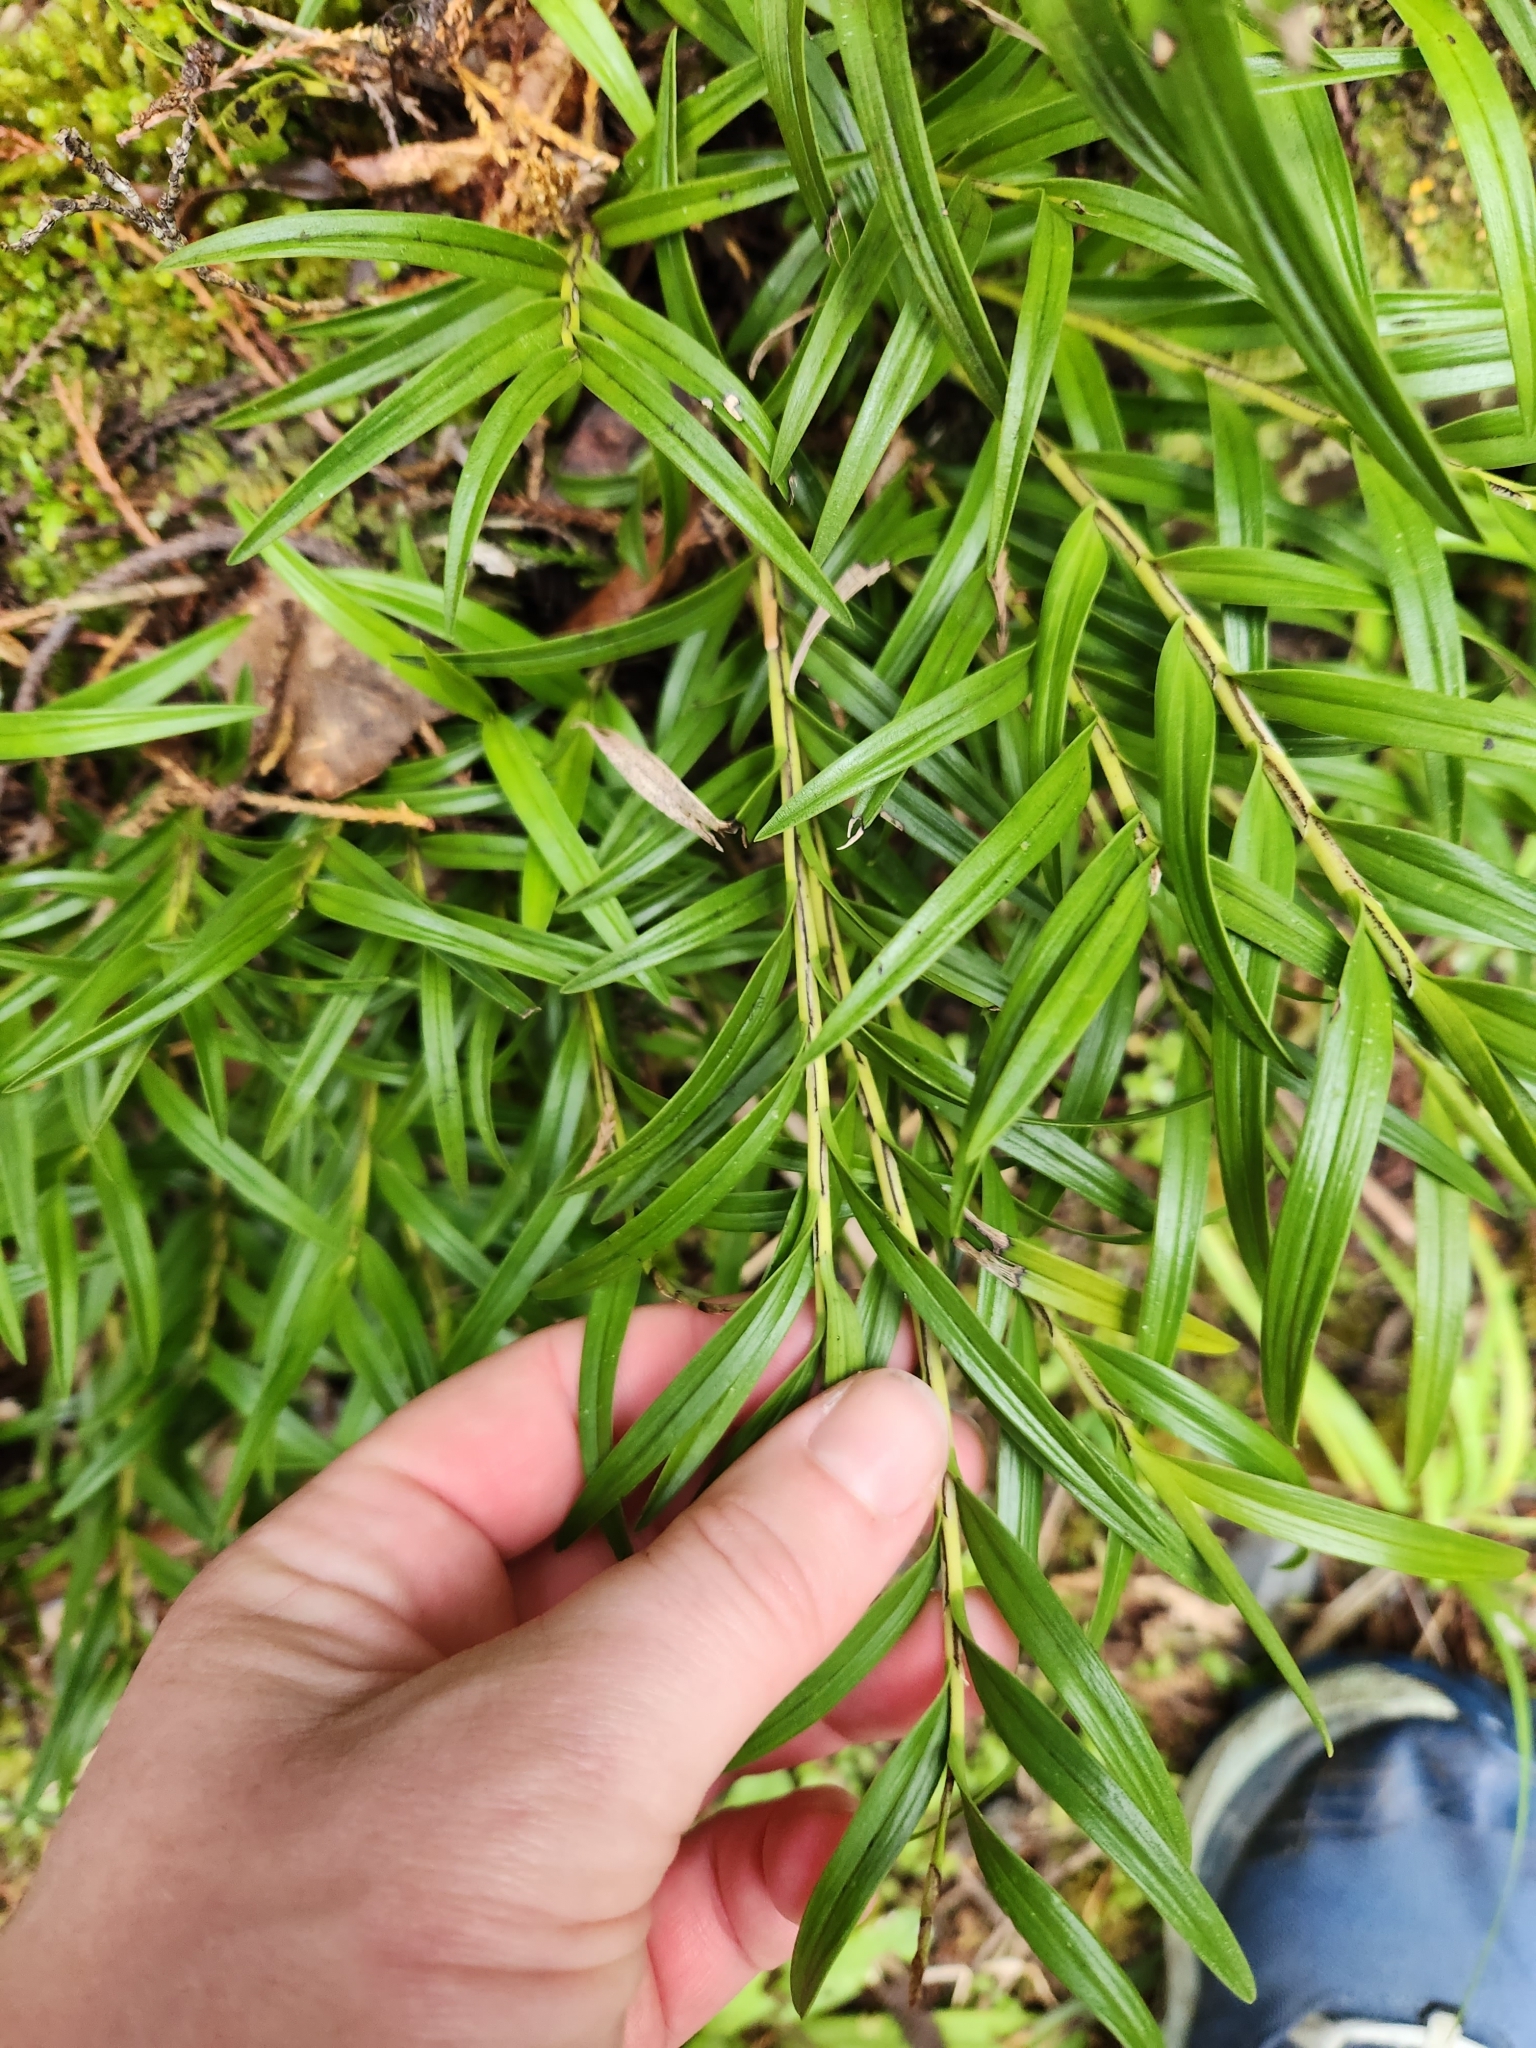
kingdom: Plantae
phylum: Tracheophyta
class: Liliopsida
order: Asparagales
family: Orchidaceae
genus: Earina
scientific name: Earina autumnalis
